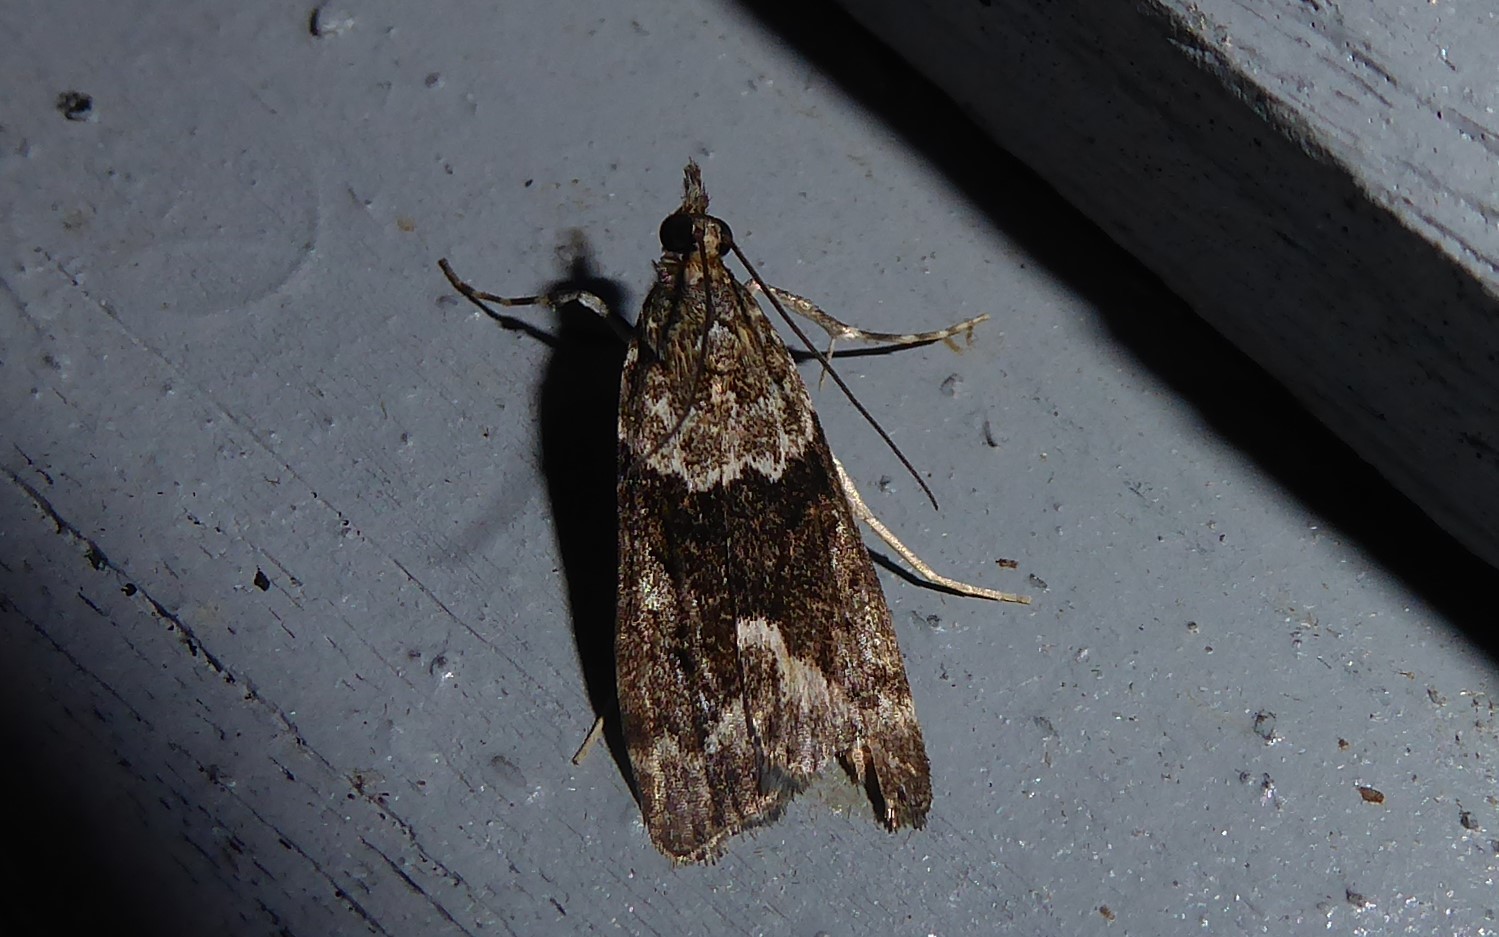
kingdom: Animalia
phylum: Arthropoda
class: Insecta
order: Lepidoptera
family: Crambidae
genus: Eudonia
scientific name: Eudonia submarginalis
